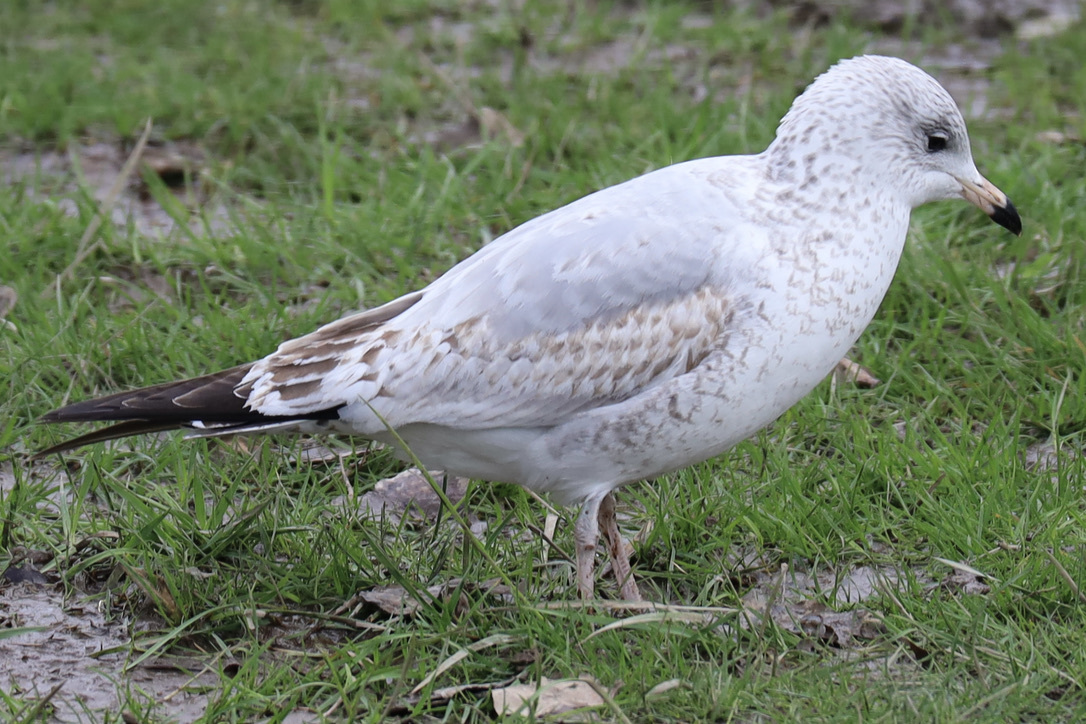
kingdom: Animalia
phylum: Chordata
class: Aves
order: Charadriiformes
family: Laridae
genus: Larus
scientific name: Larus delawarensis
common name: Ring-billed gull
